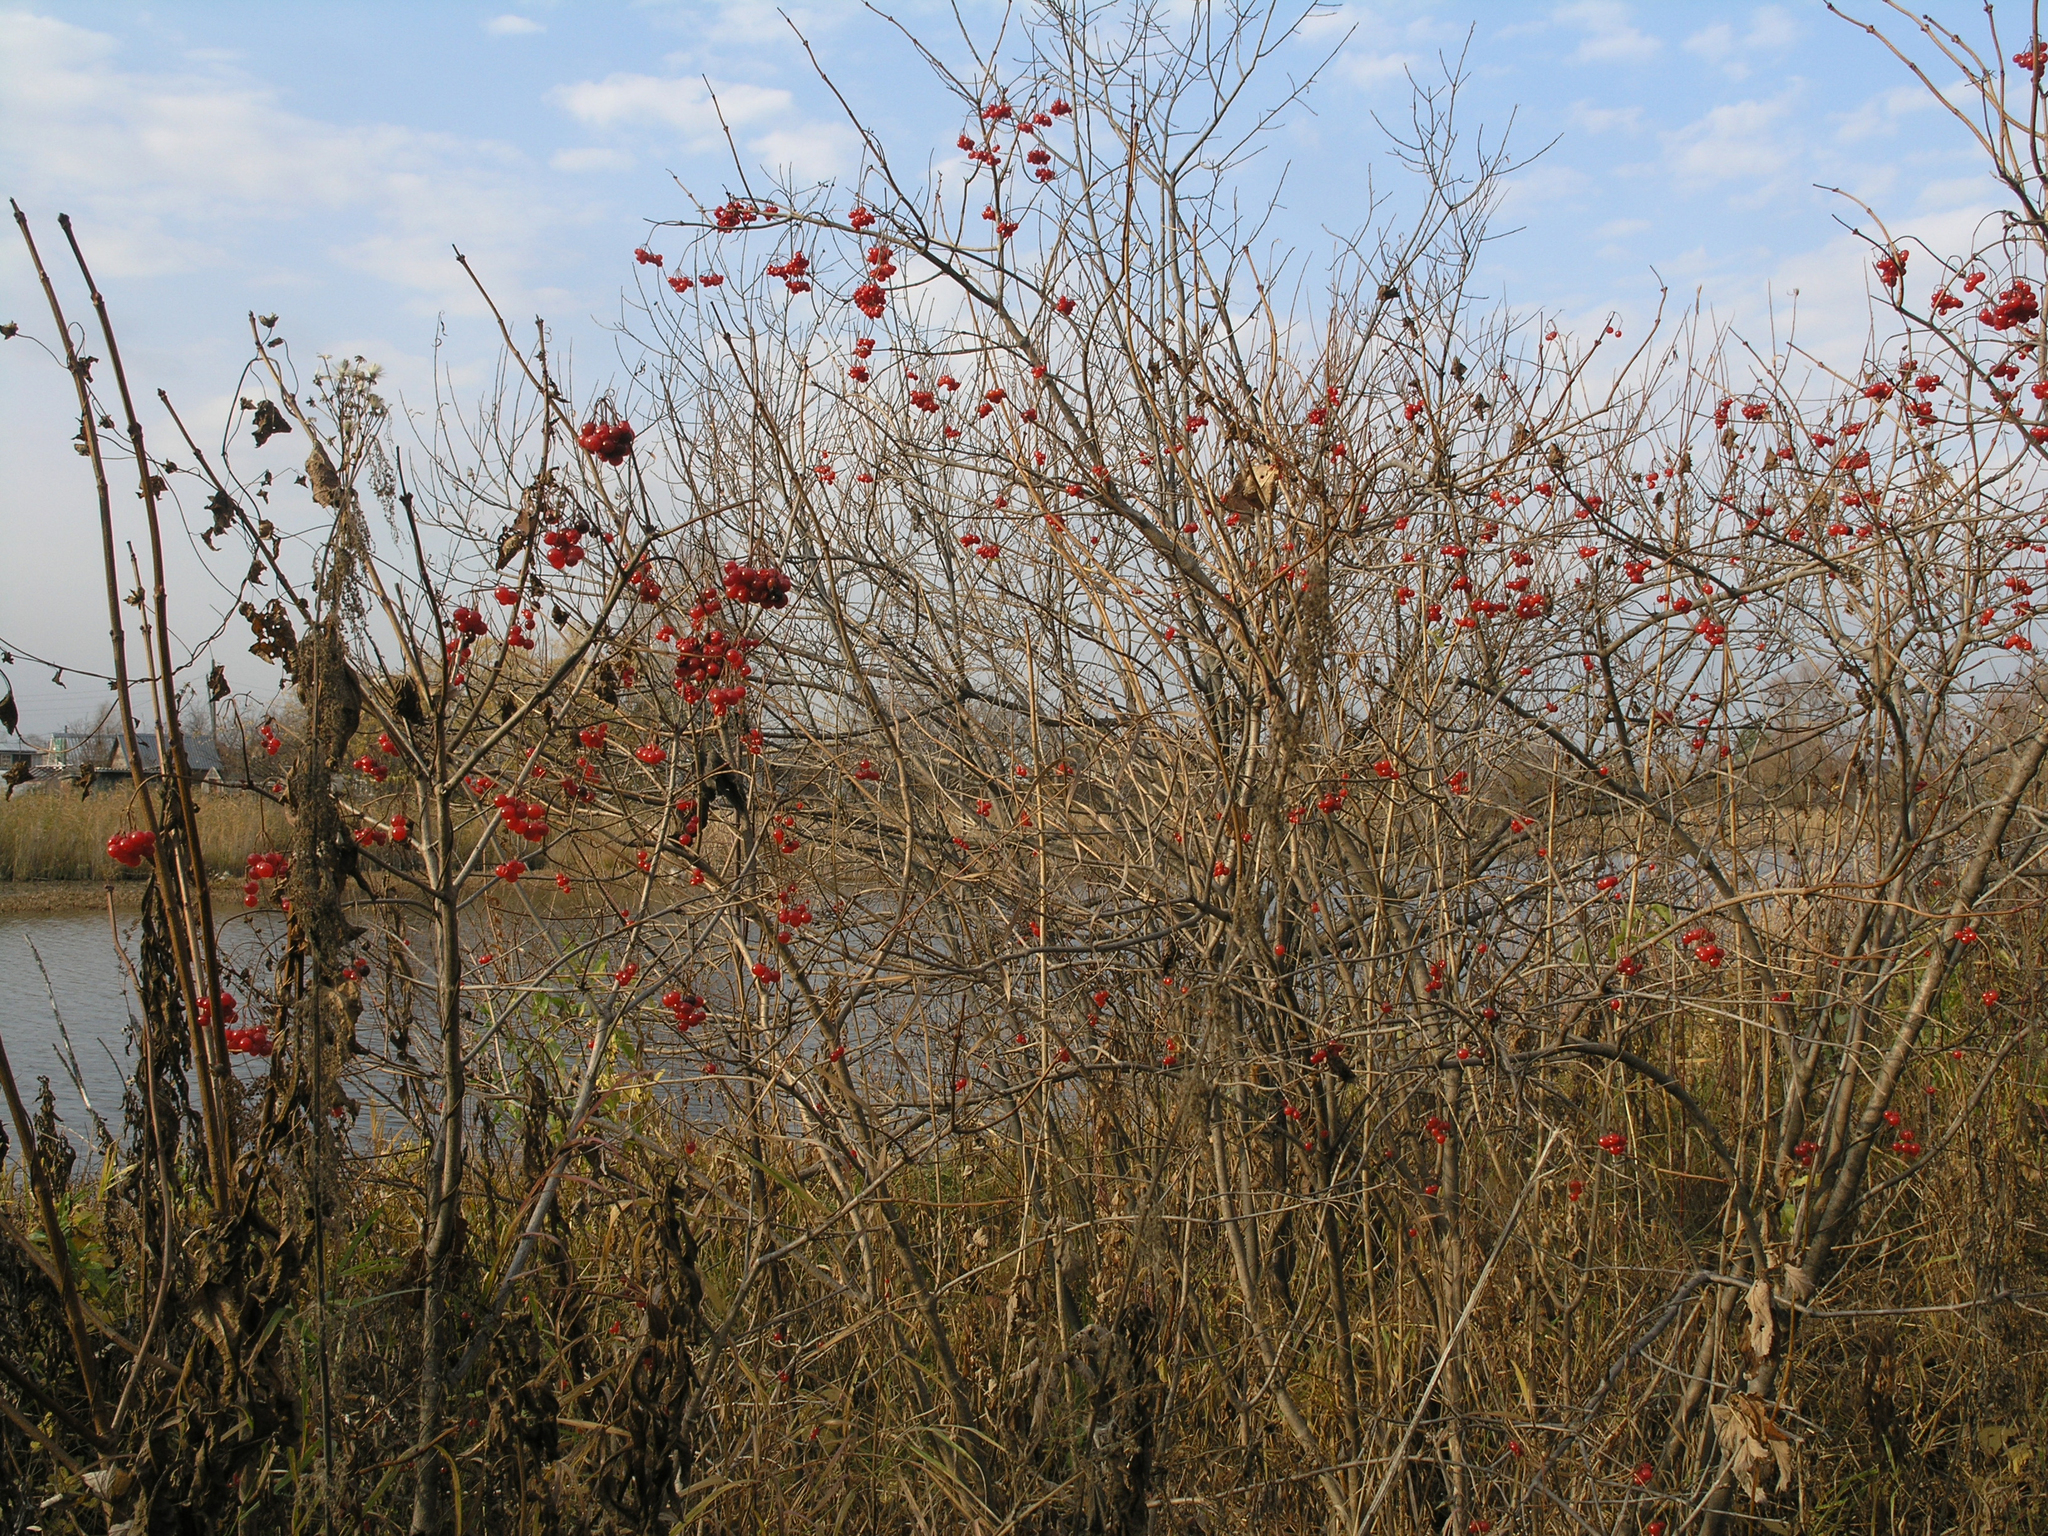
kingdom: Plantae
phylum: Tracheophyta
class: Magnoliopsida
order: Asterales
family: Asteraceae
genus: Inula
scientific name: Inula helenium
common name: Elecampane
